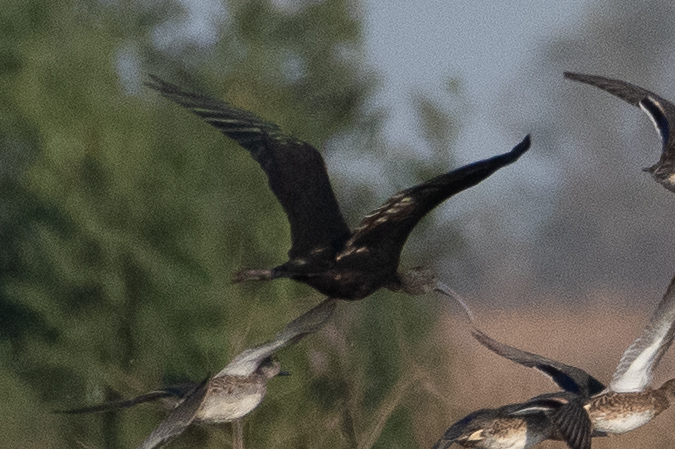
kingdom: Animalia
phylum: Chordata
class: Aves
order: Pelecaniformes
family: Threskiornithidae
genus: Plegadis
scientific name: Plegadis chihi
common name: White-faced ibis
